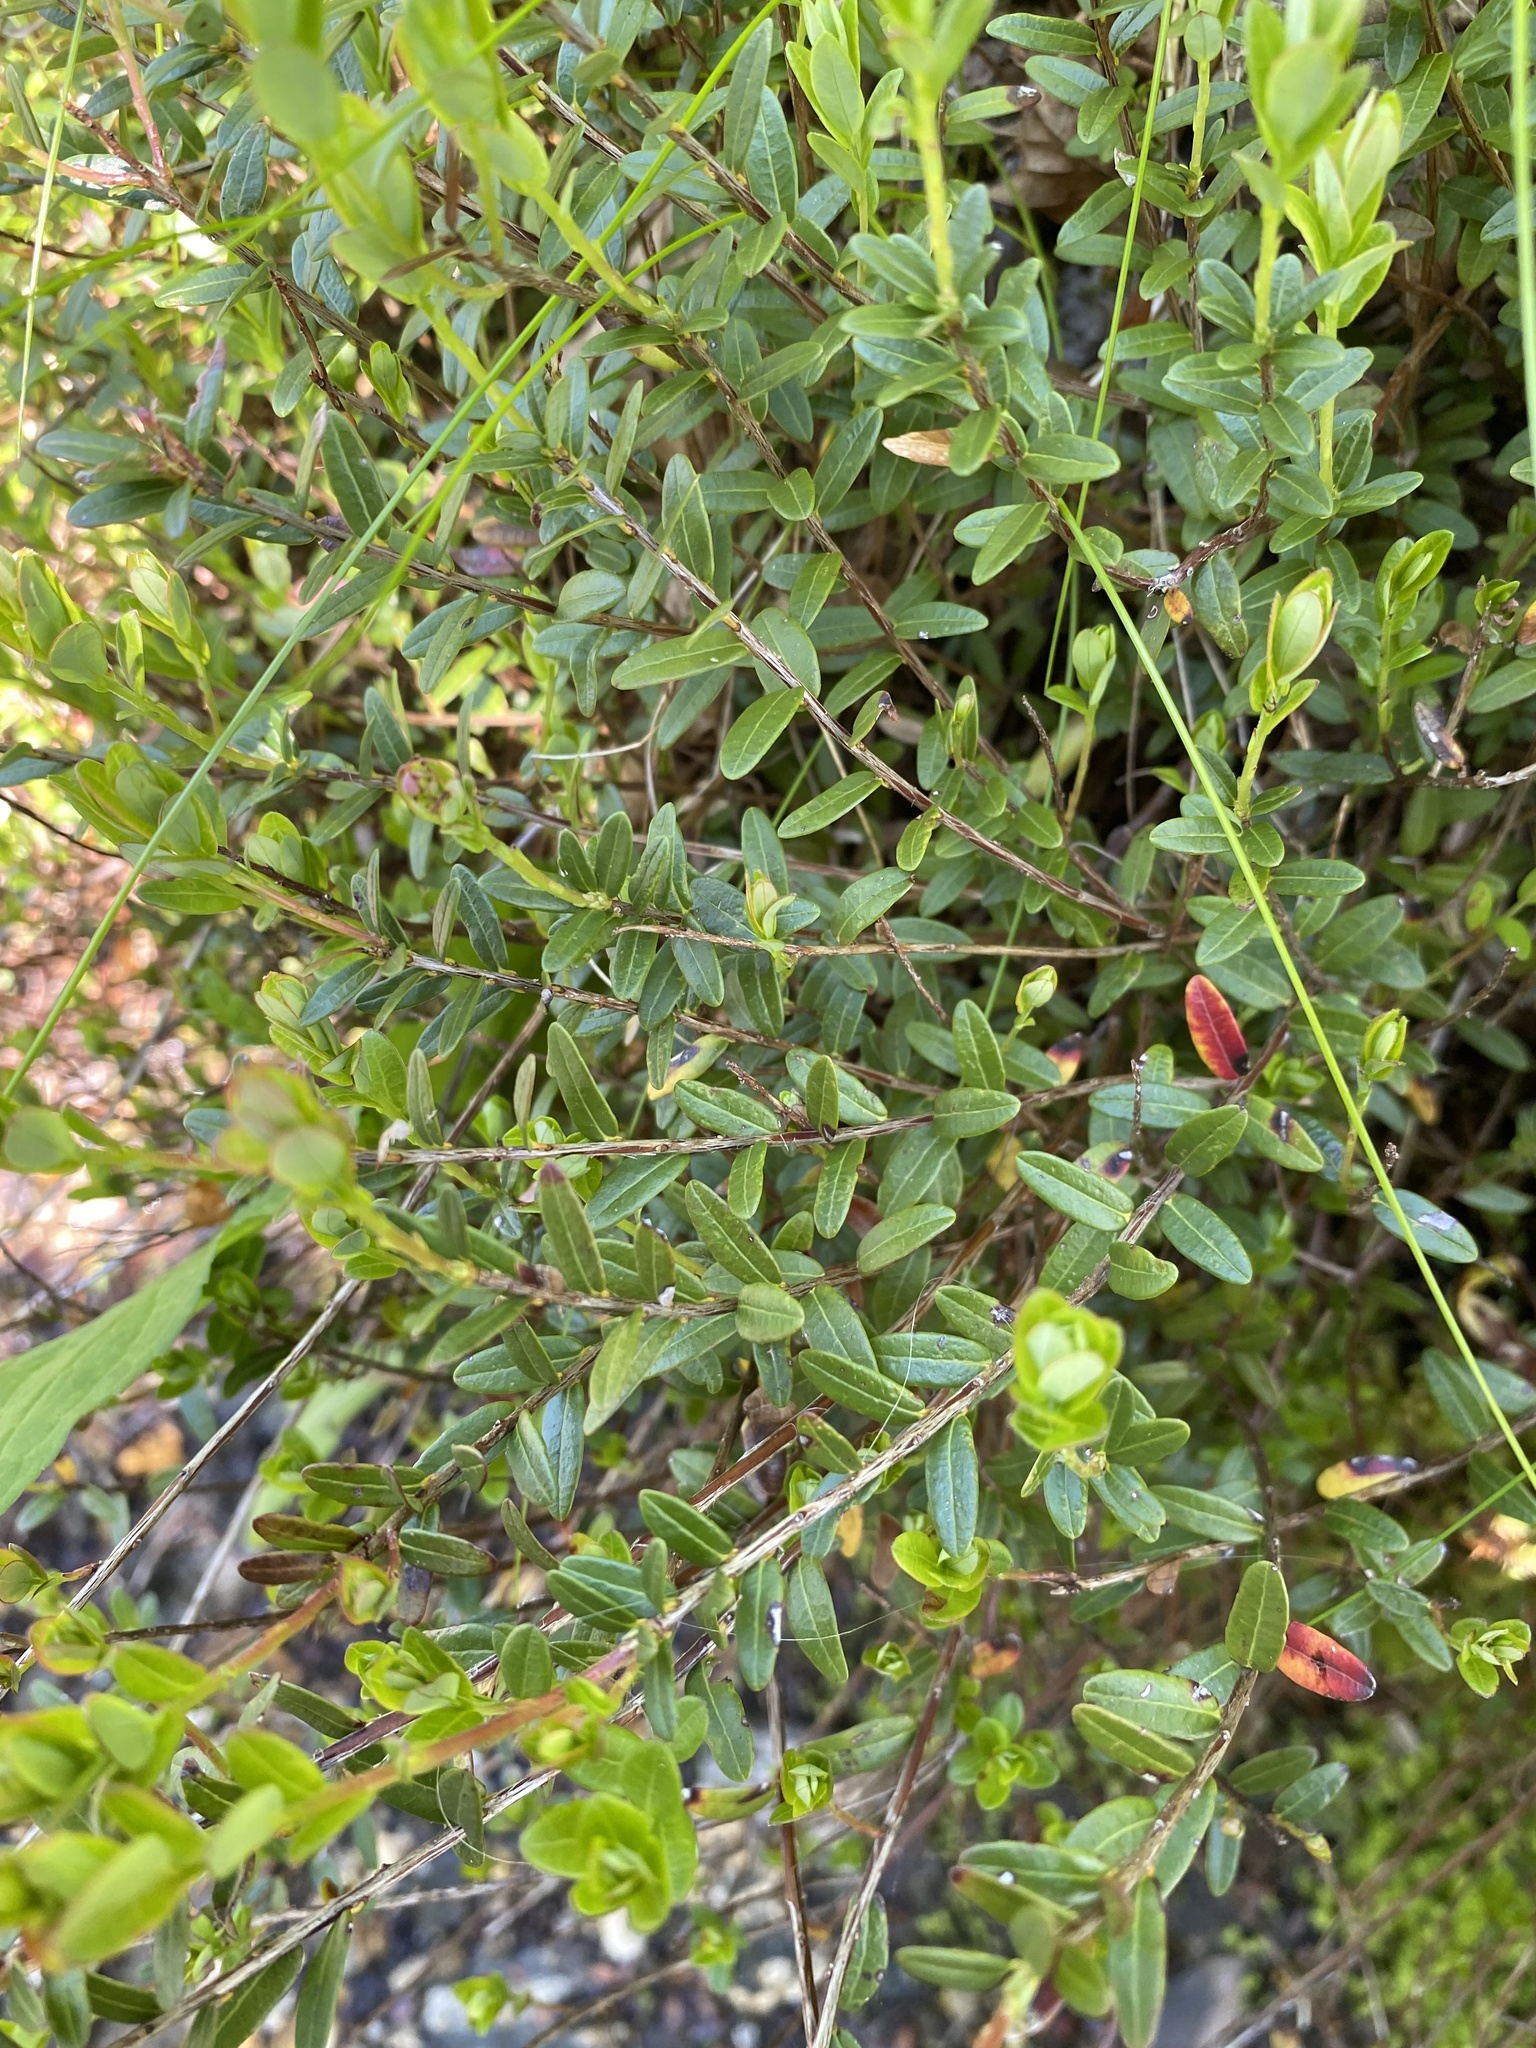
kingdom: Plantae
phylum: Tracheophyta
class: Magnoliopsida
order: Ericales
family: Ericaceae
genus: Vaccinium
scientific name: Vaccinium macrocarpon
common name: American cranberry
